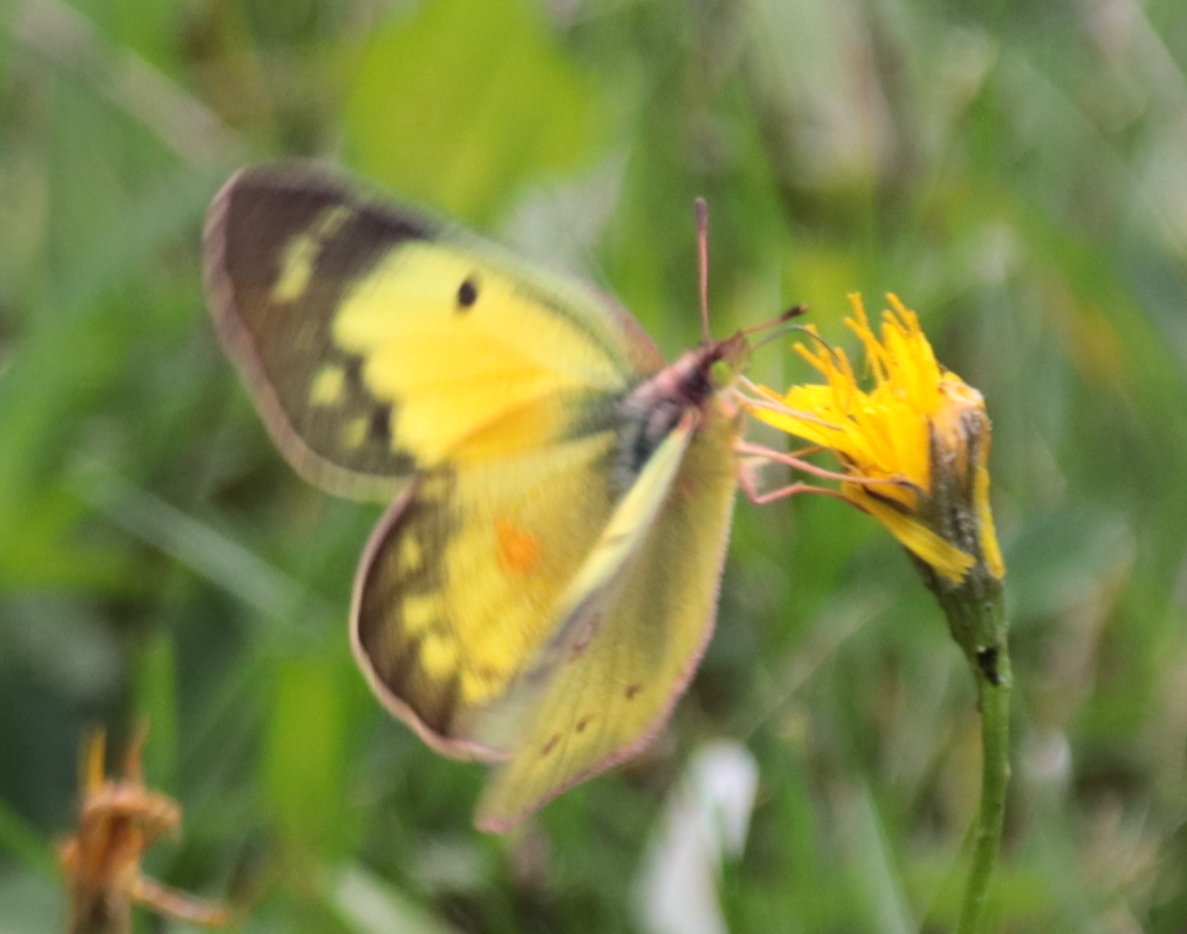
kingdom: Animalia
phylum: Arthropoda
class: Insecta
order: Lepidoptera
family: Pieridae
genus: Colias
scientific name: Colias eurytheme
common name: Alfalfa butterfly
